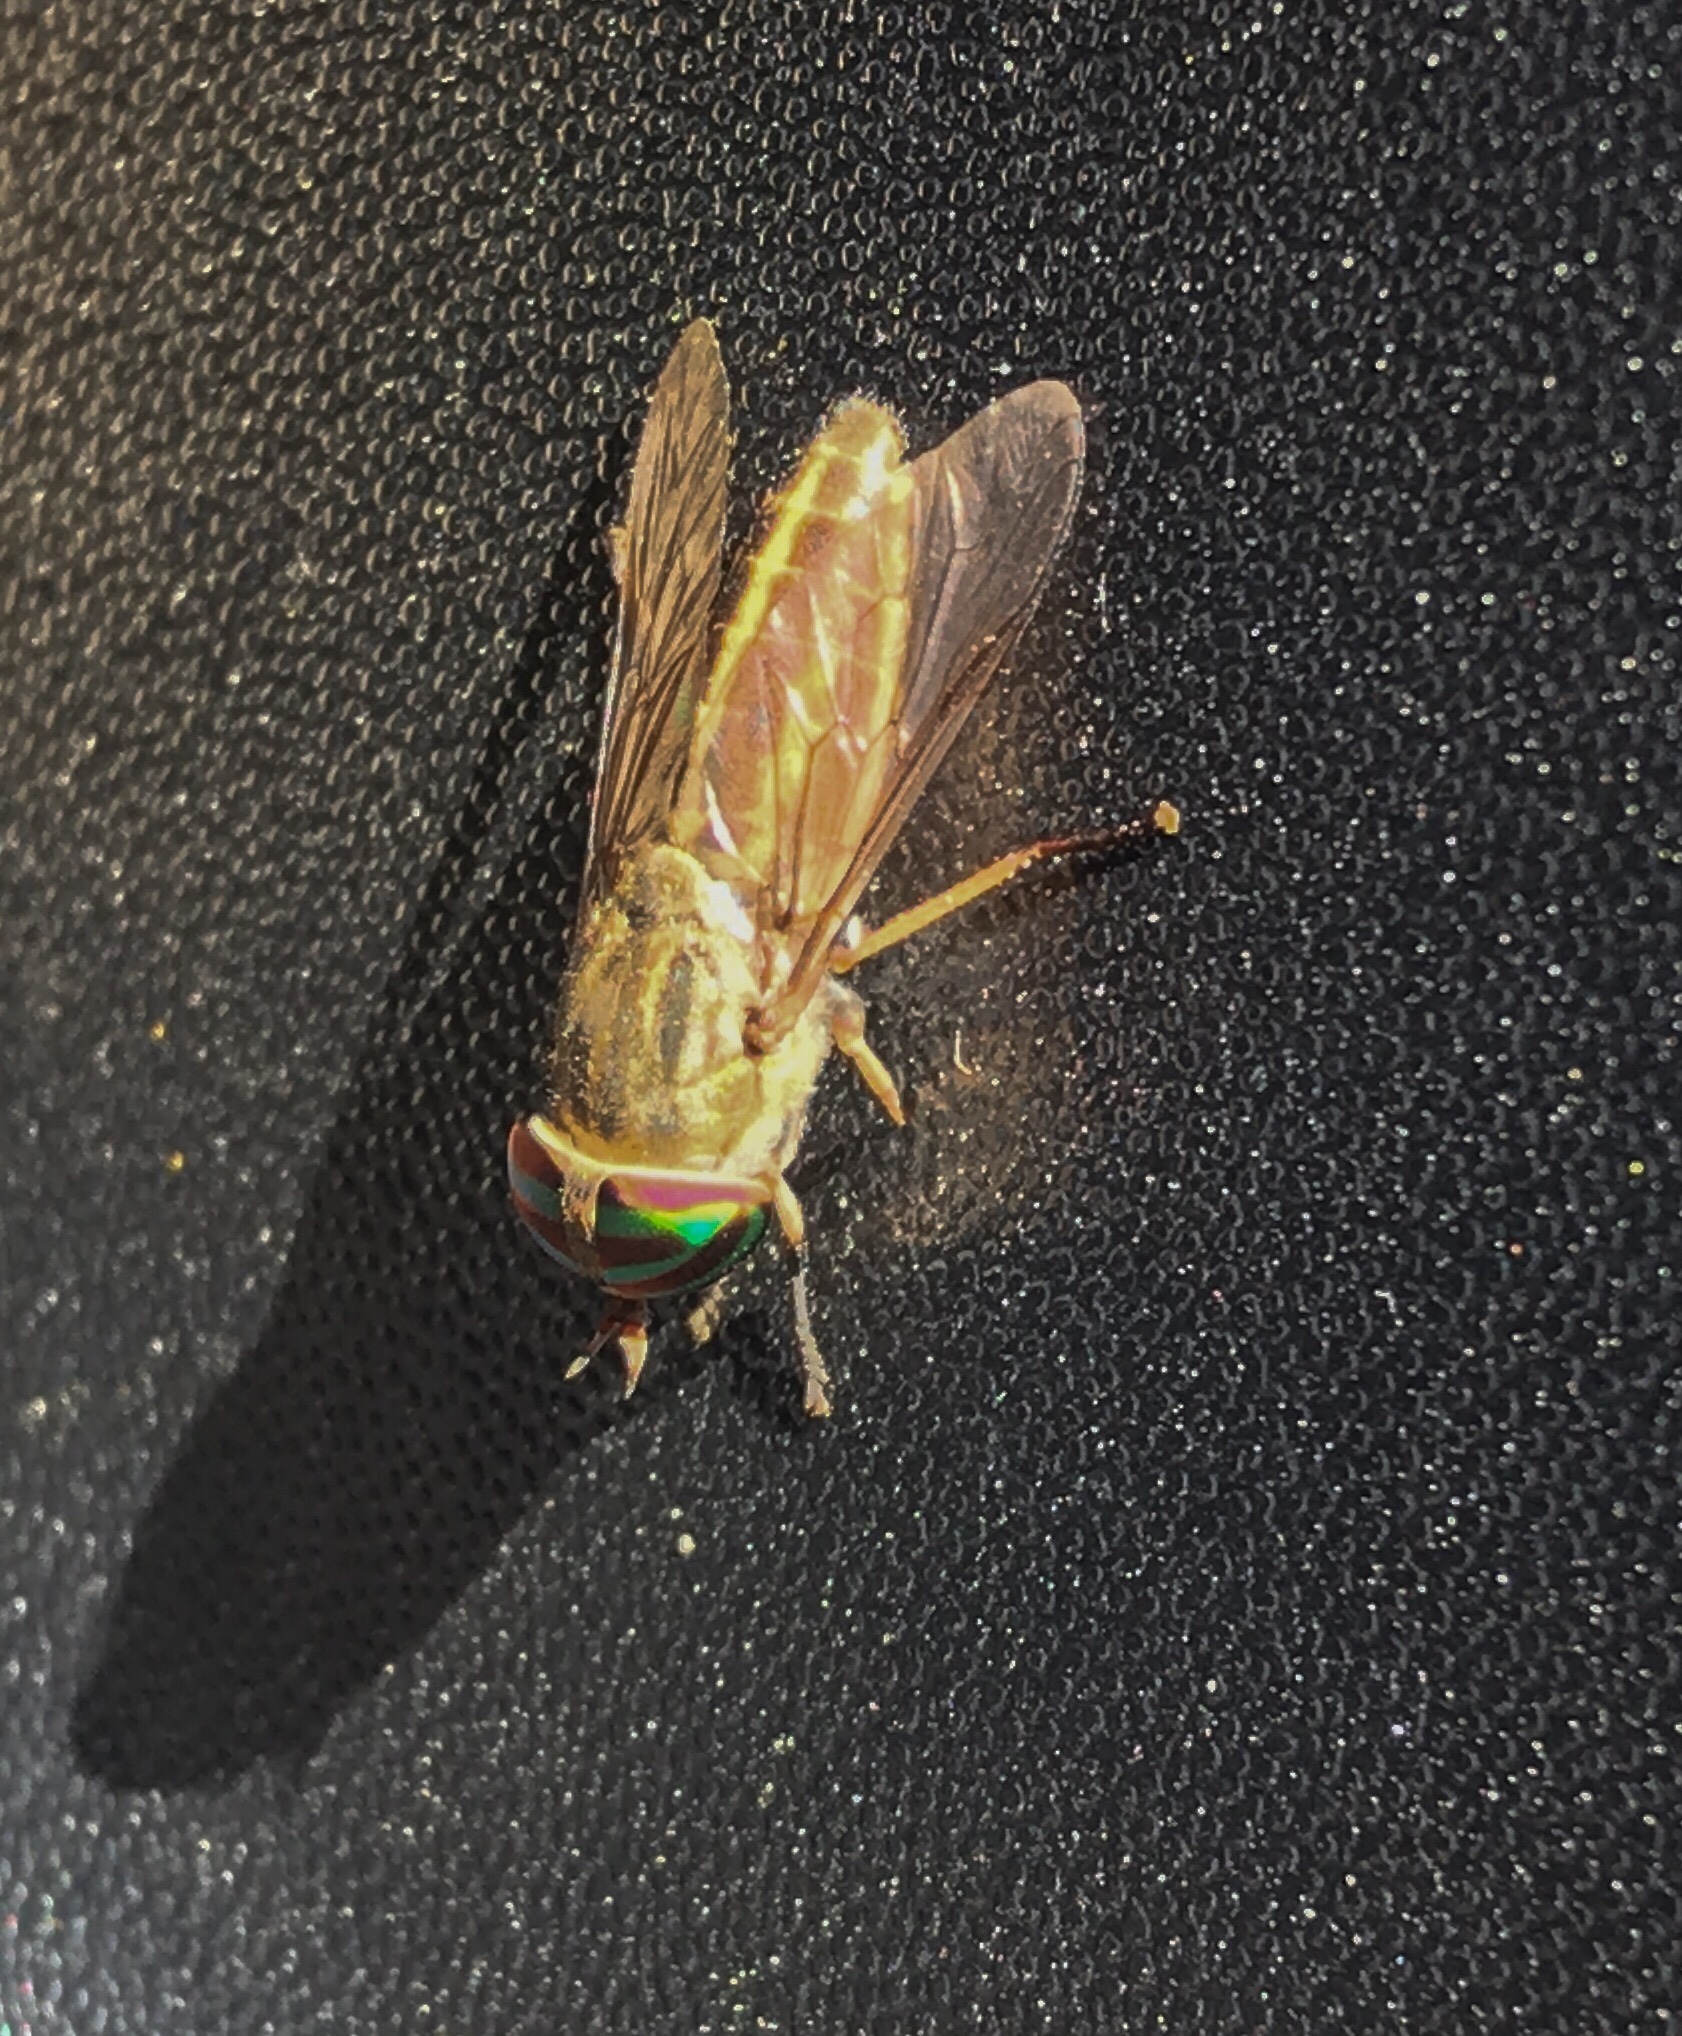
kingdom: Animalia
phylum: Arthropoda
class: Insecta
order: Diptera
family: Tabanidae
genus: Tabanus
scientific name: Tabanus lineola
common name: Striped horse fly
